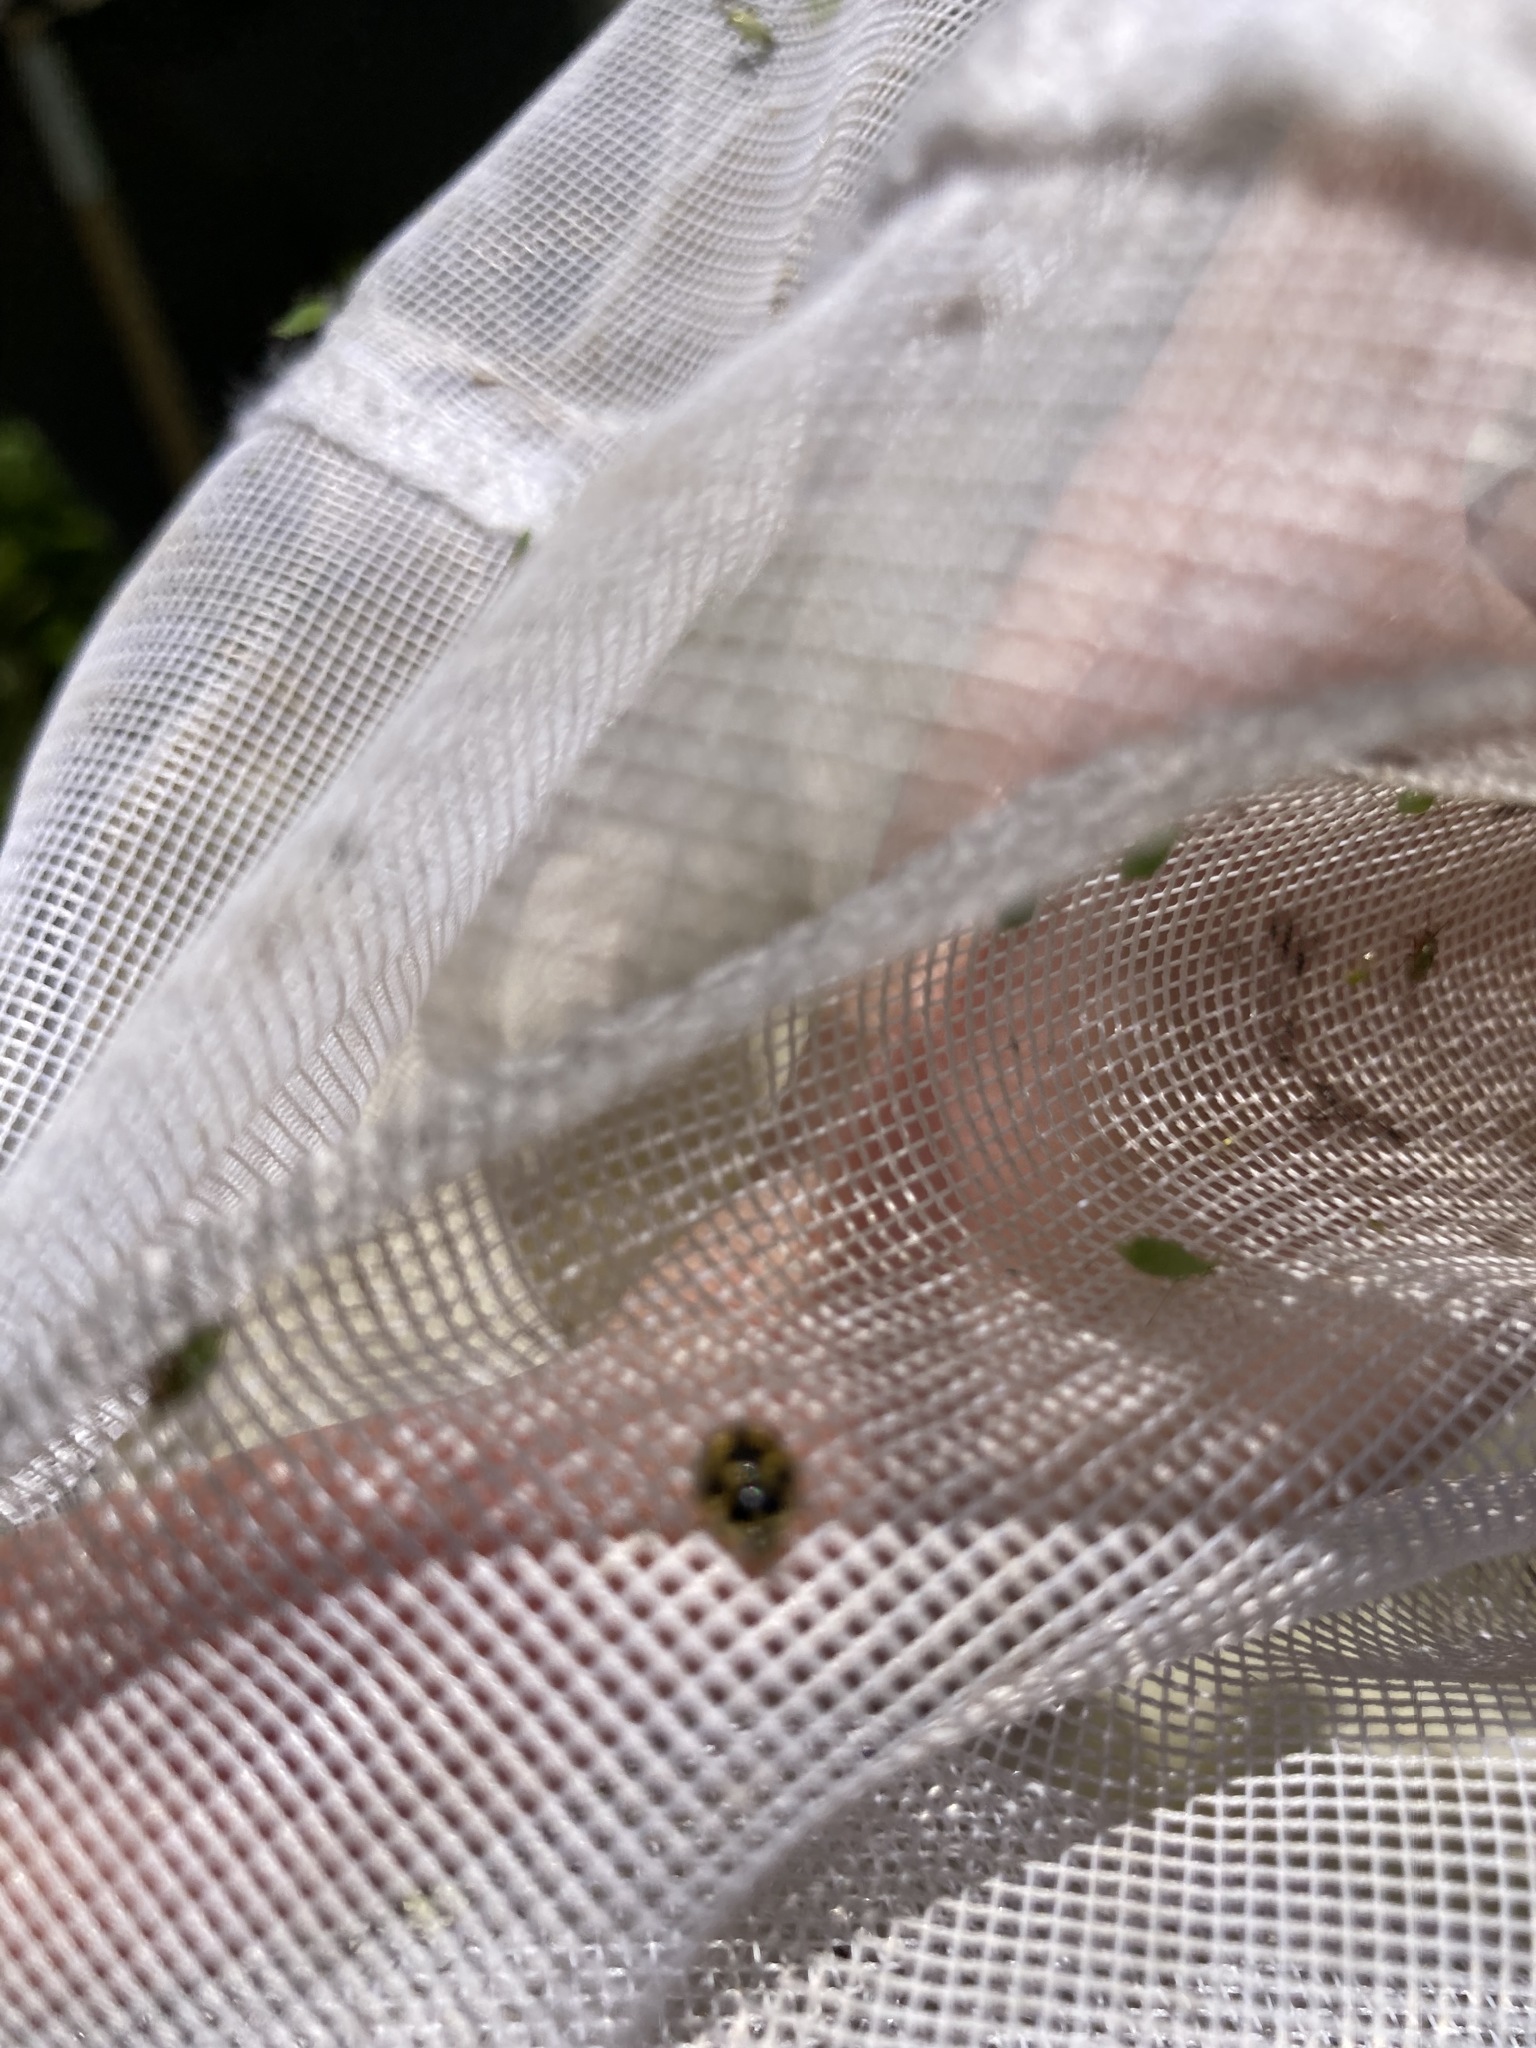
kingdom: Animalia
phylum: Arthropoda
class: Insecta
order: Coleoptera
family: Coccinellidae
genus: Propylaea
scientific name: Propylaea quatuordecimpunctata
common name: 14-spotted ladybird beetle
